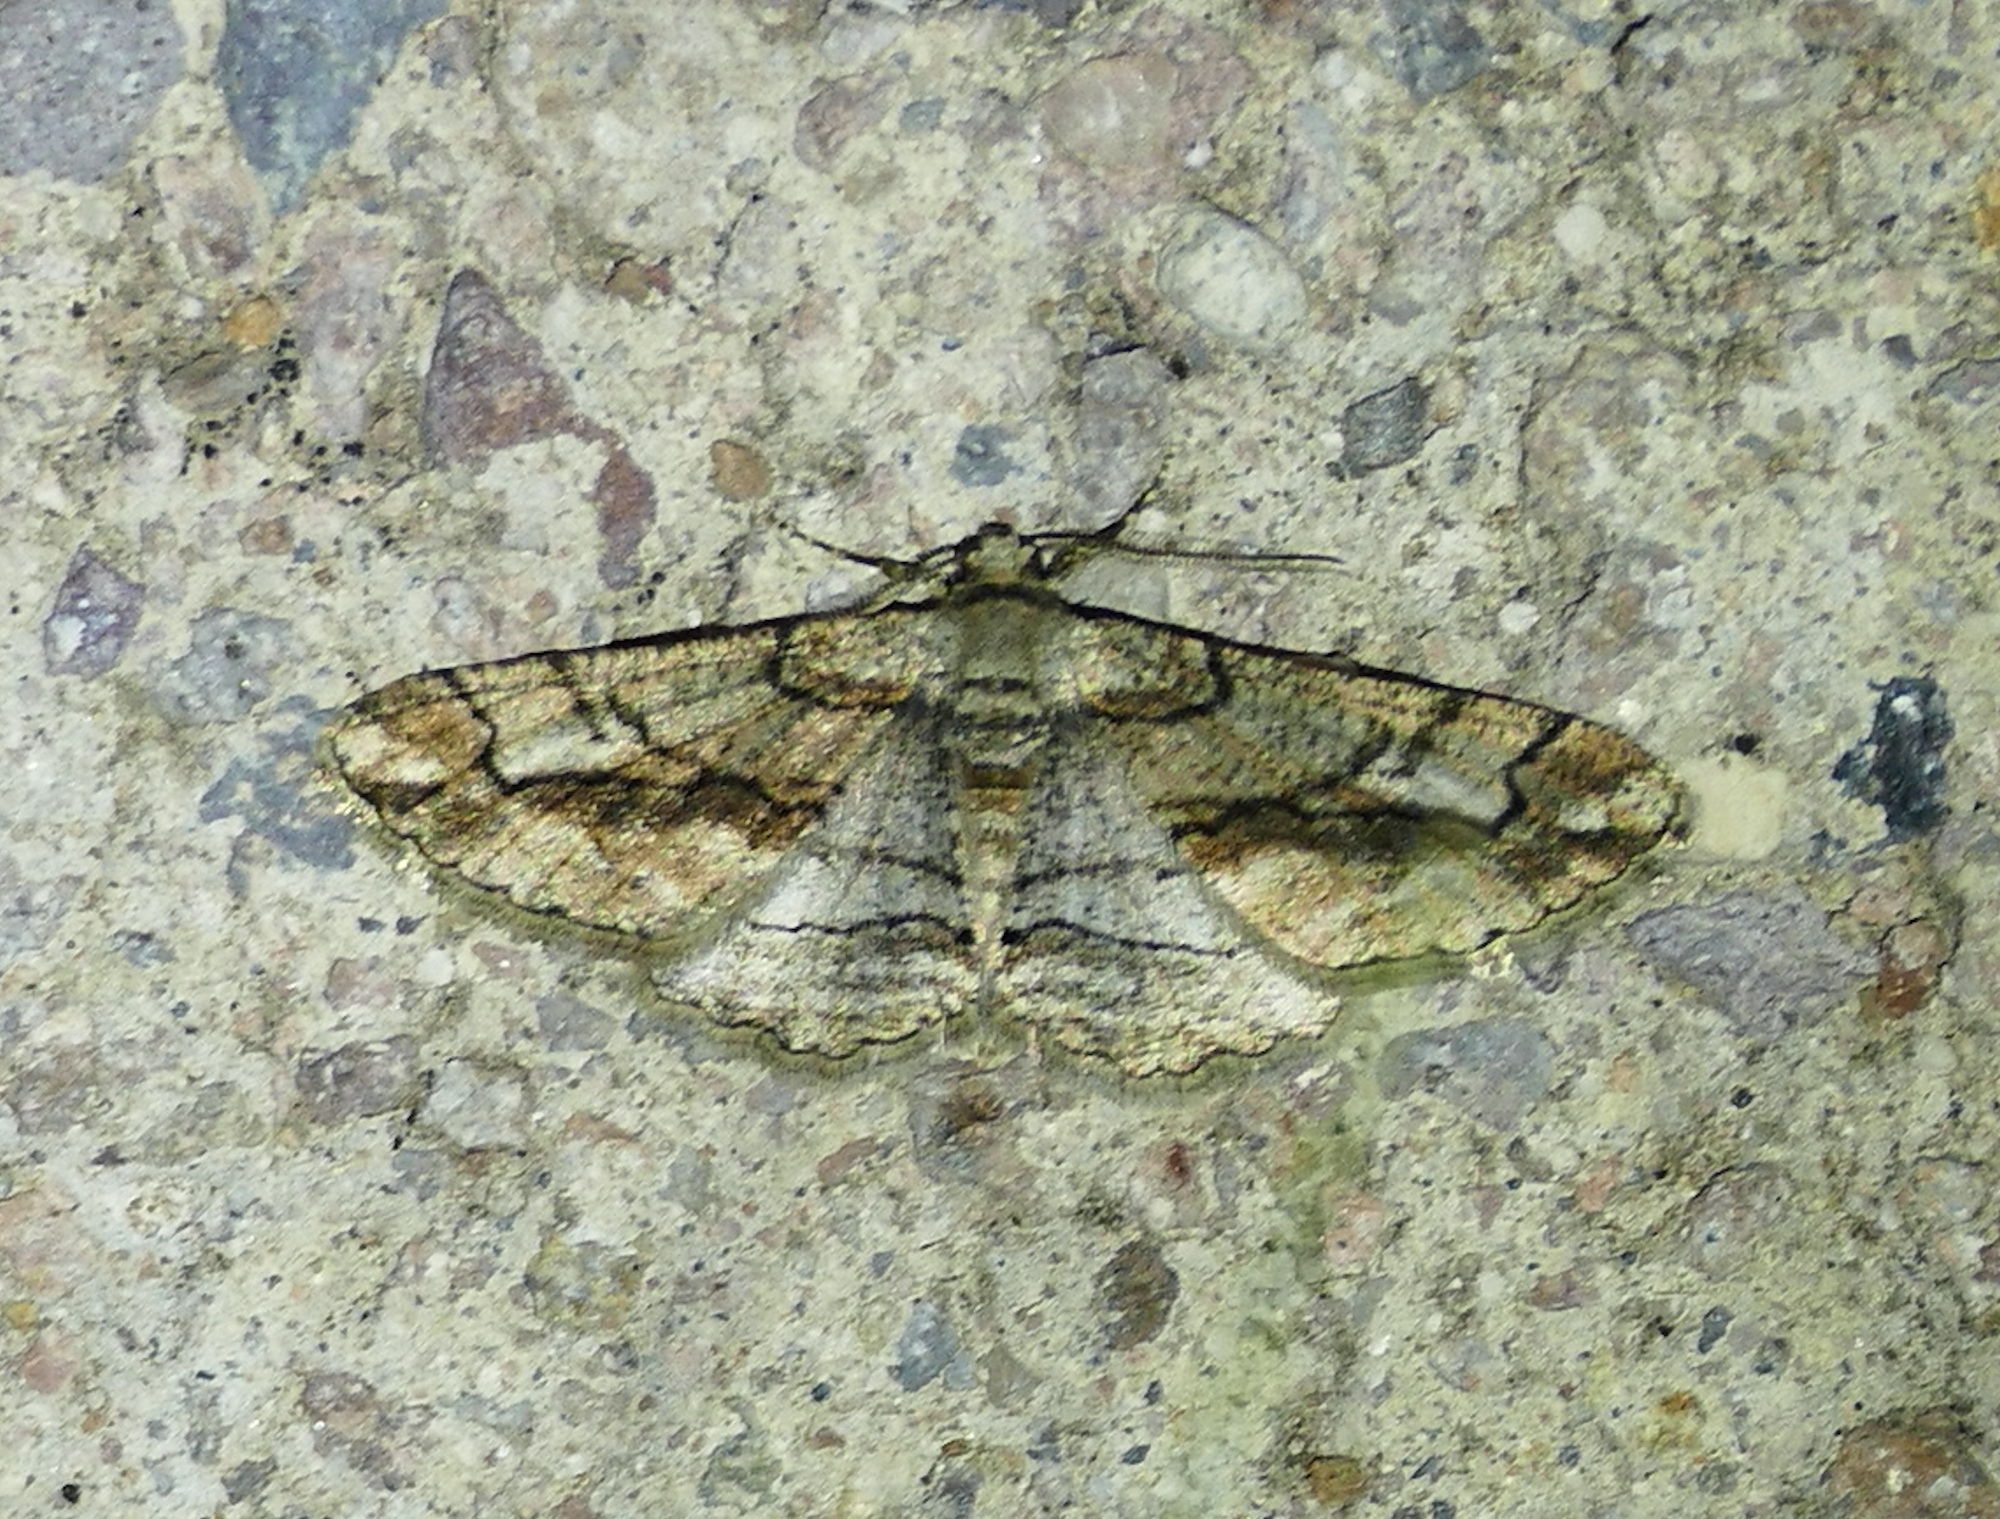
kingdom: Animalia
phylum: Arthropoda
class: Insecta
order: Lepidoptera
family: Geometridae
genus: Parapheromia
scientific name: Parapheromia falsata
